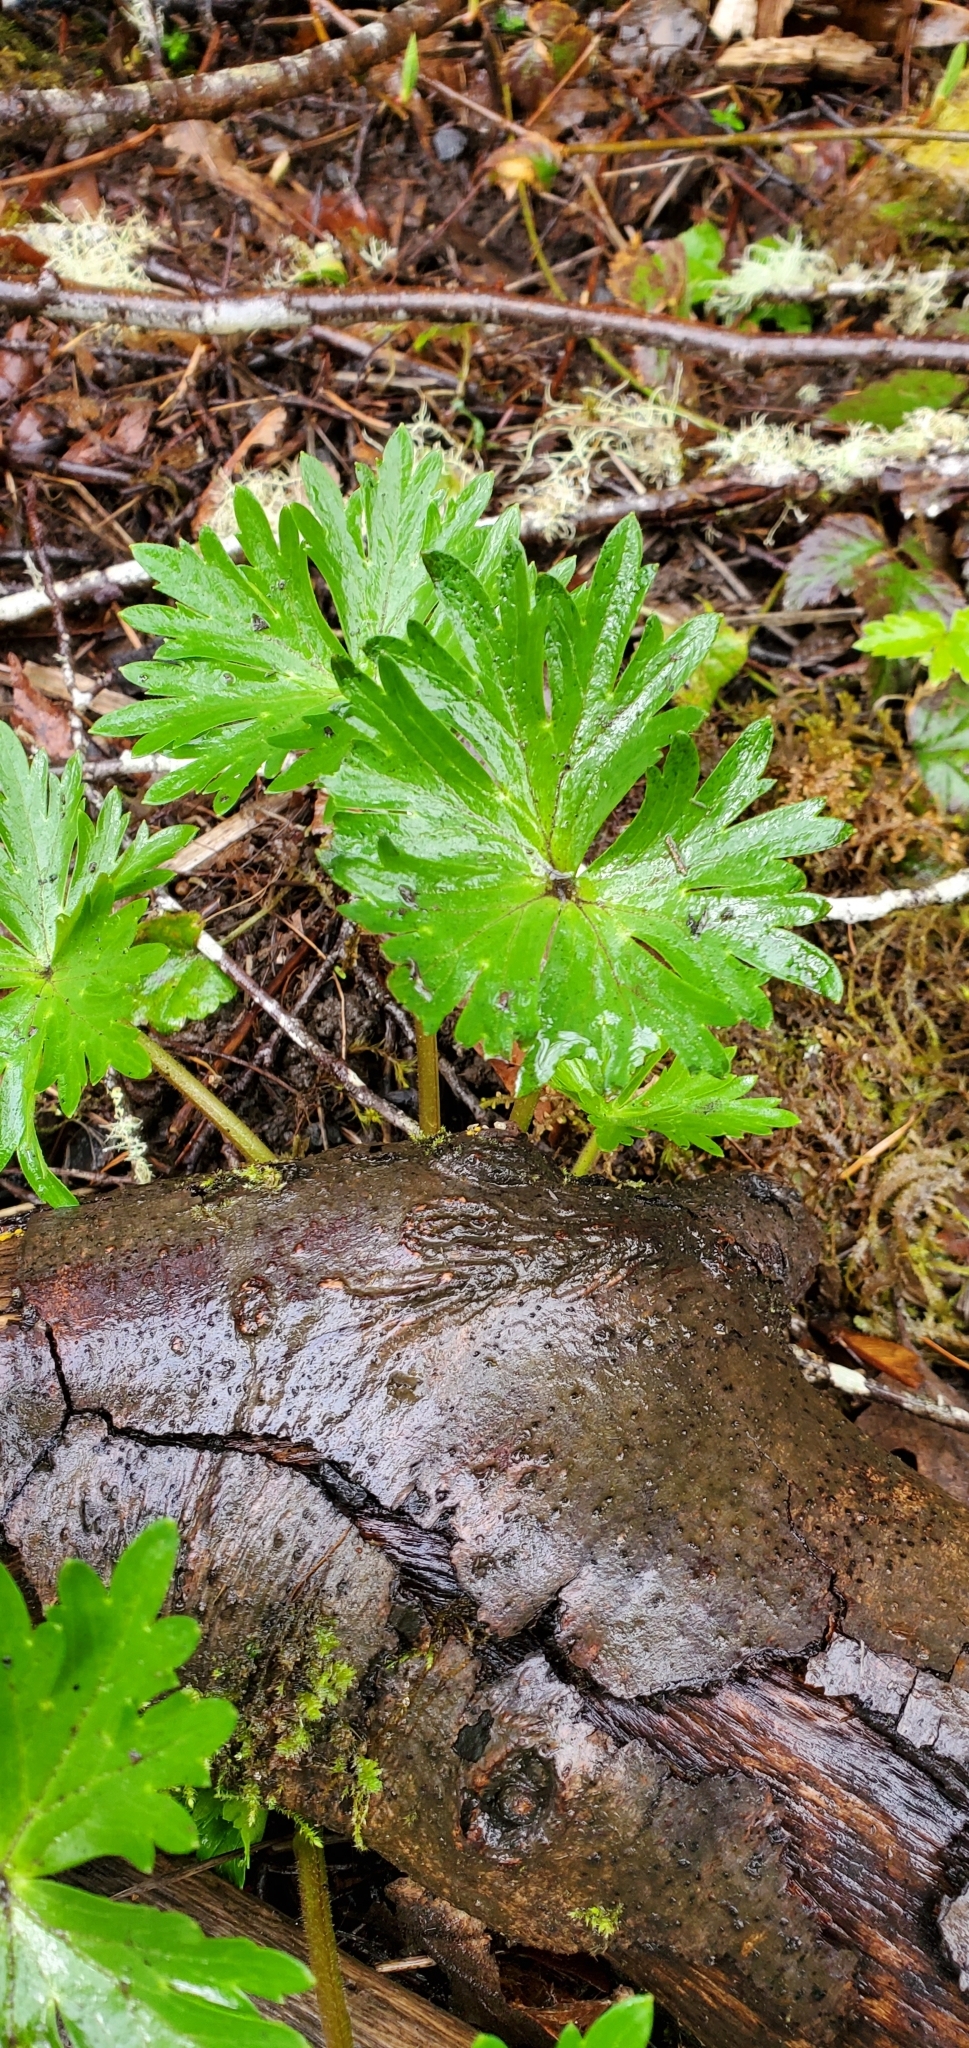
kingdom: Plantae
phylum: Tracheophyta
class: Magnoliopsida
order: Ranunculales
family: Ranunculaceae
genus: Delphinium
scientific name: Delphinium trolliifolium
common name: Cow-poison
